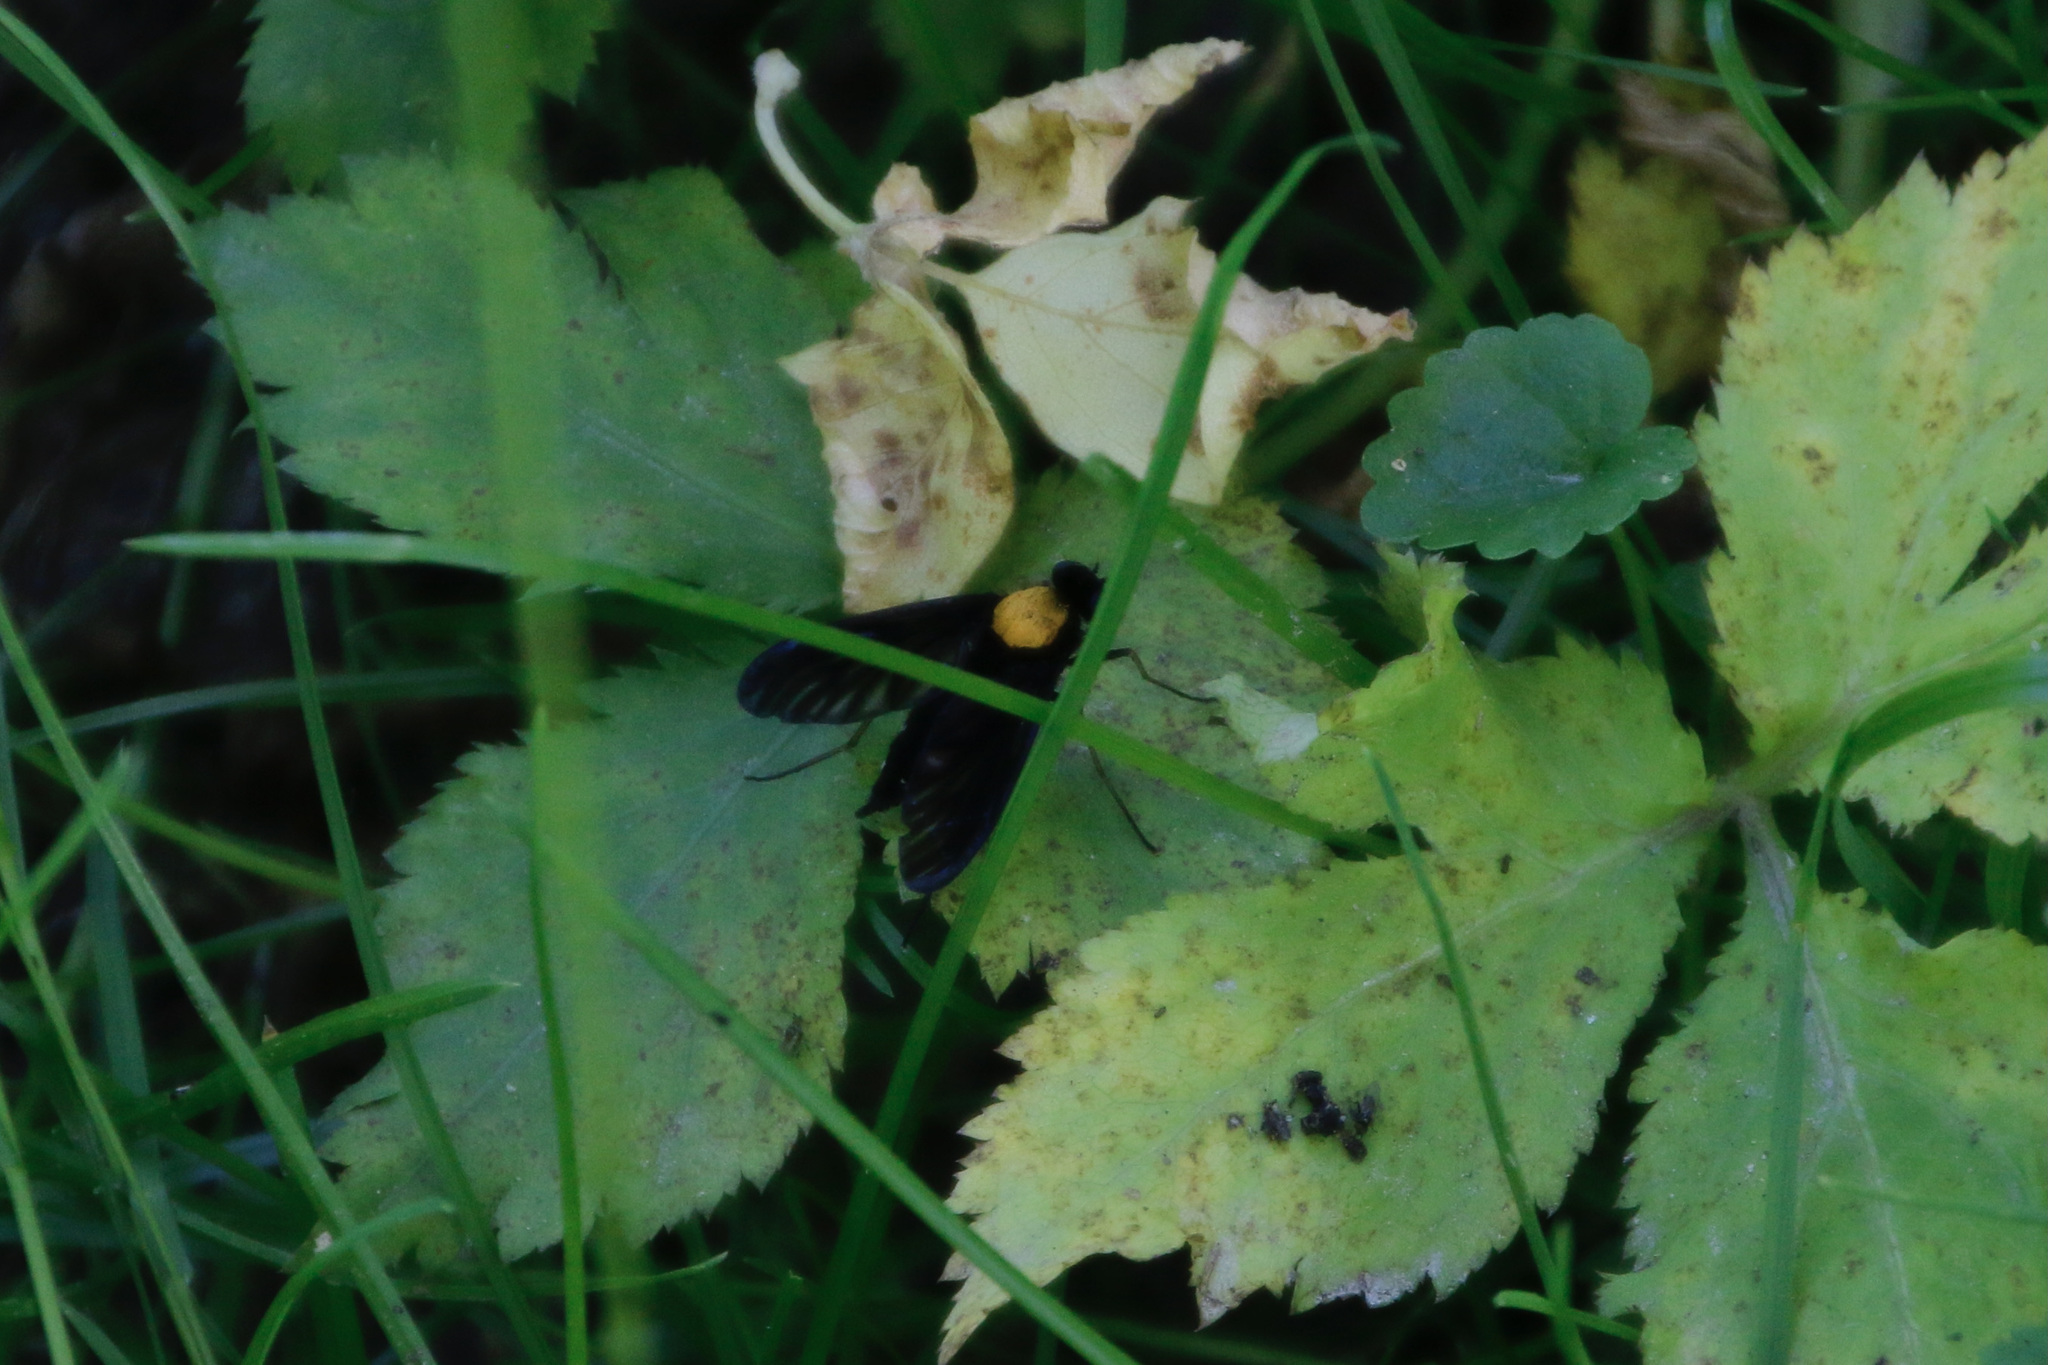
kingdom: Animalia
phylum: Arthropoda
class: Insecta
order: Diptera
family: Rhagionidae
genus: Chrysopilus
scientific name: Chrysopilus thoracicus
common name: Golden-backed snipe fly
